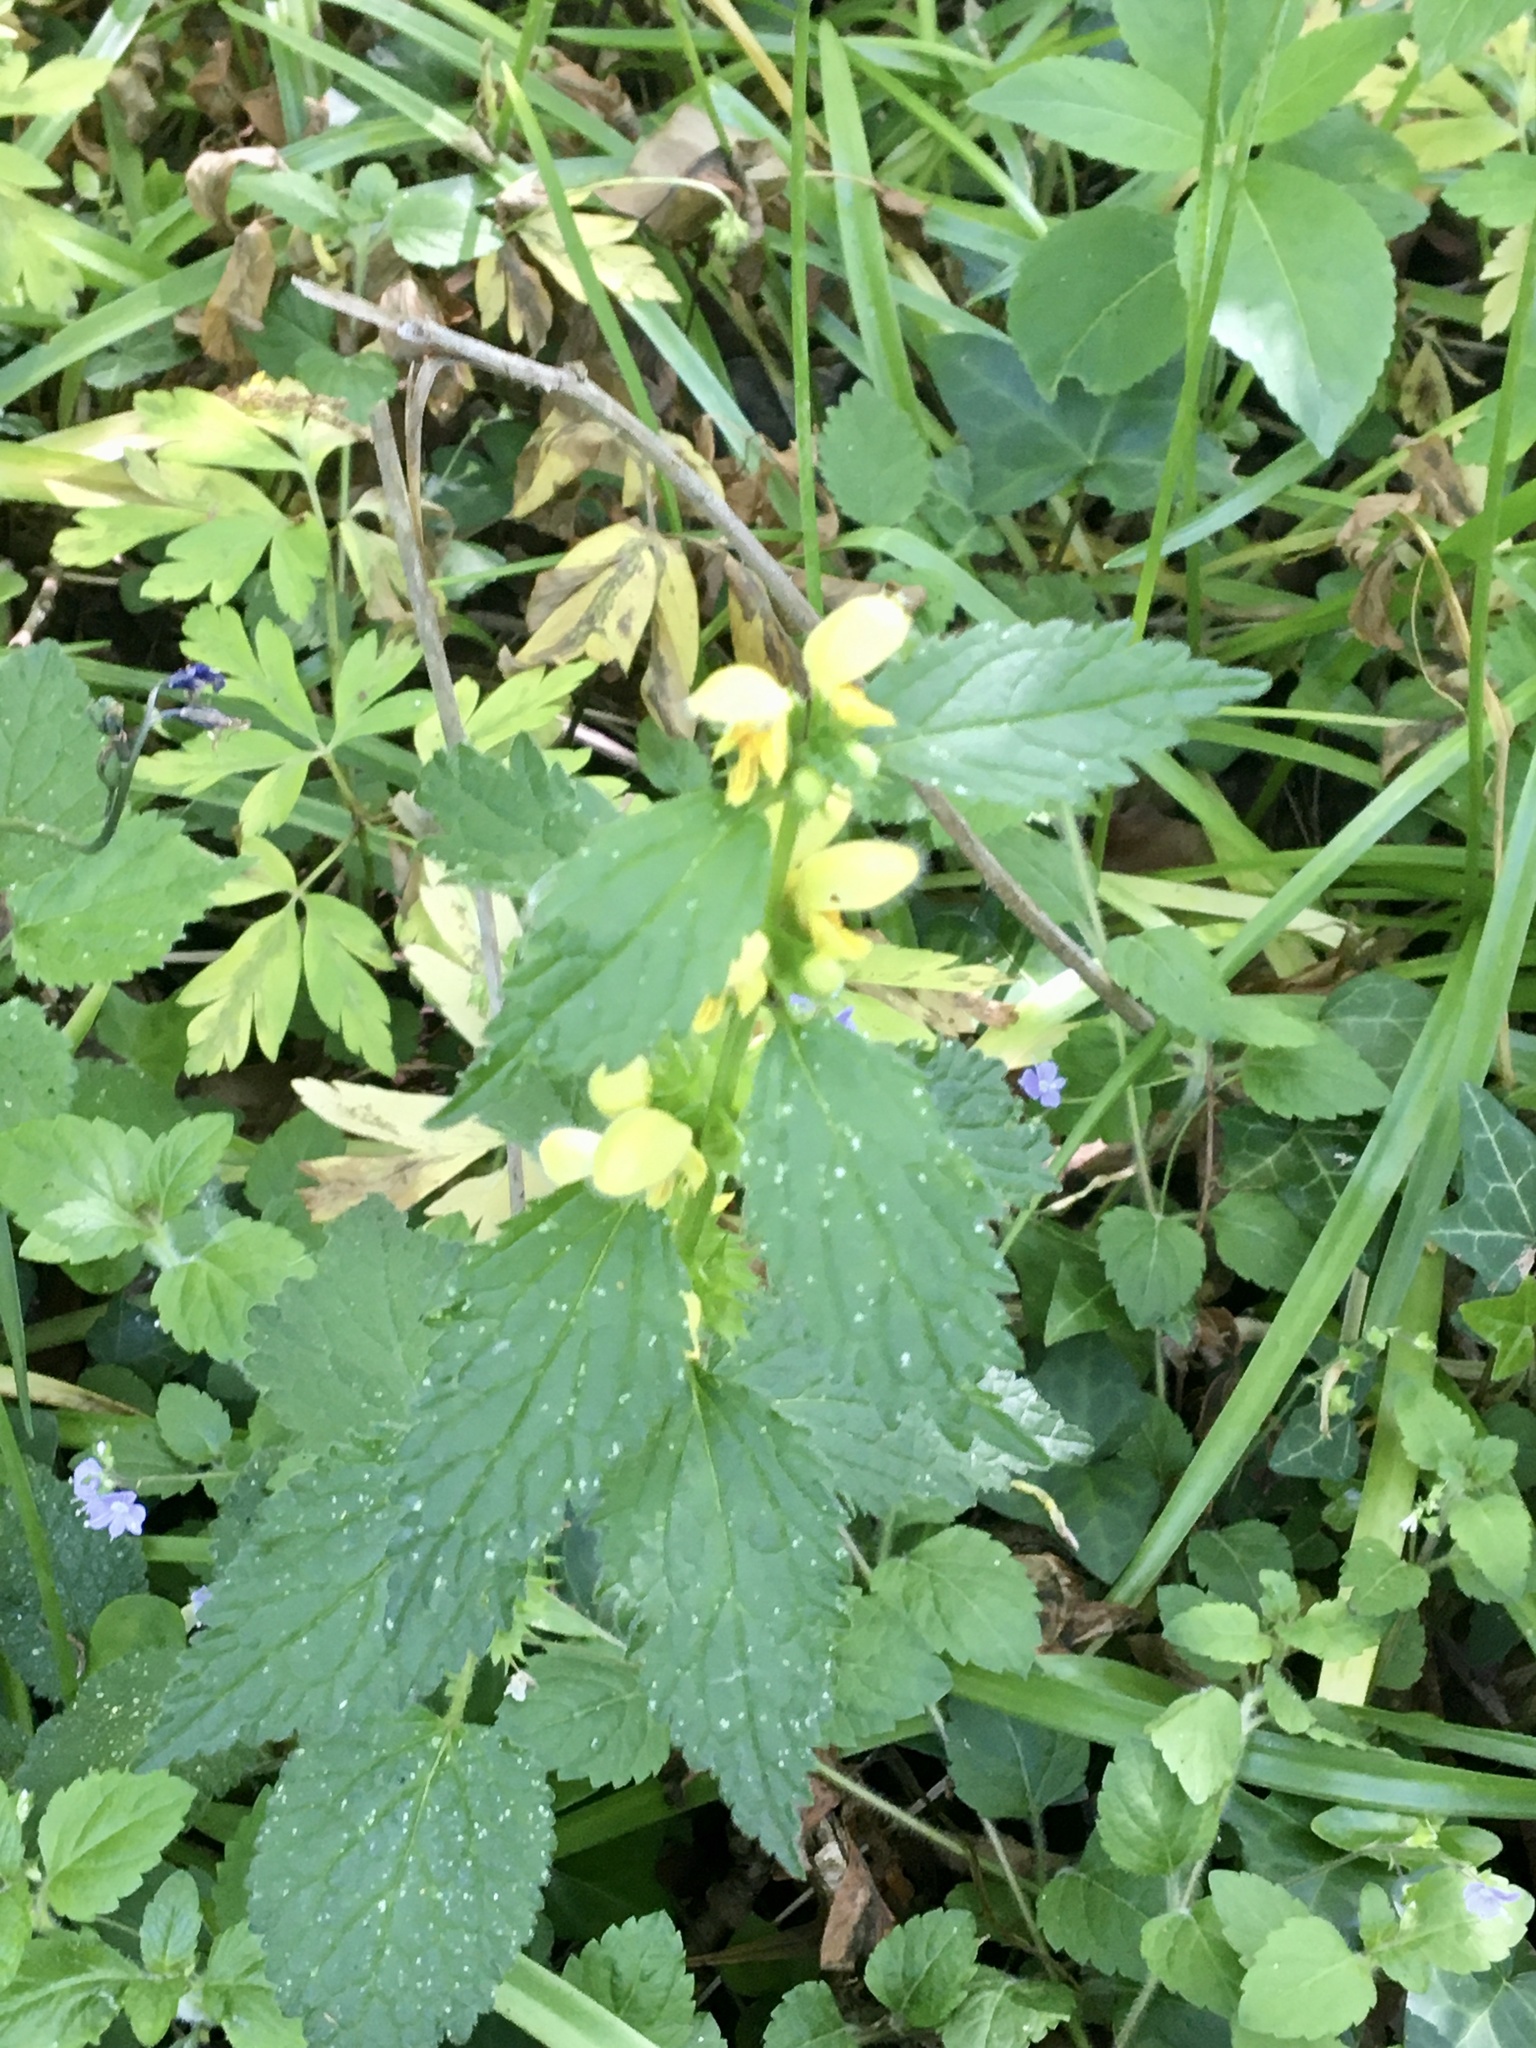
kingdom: Plantae
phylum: Tracheophyta
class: Magnoliopsida
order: Lamiales
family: Lamiaceae
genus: Lamium
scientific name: Lamium galeobdolon
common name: Yellow archangel
